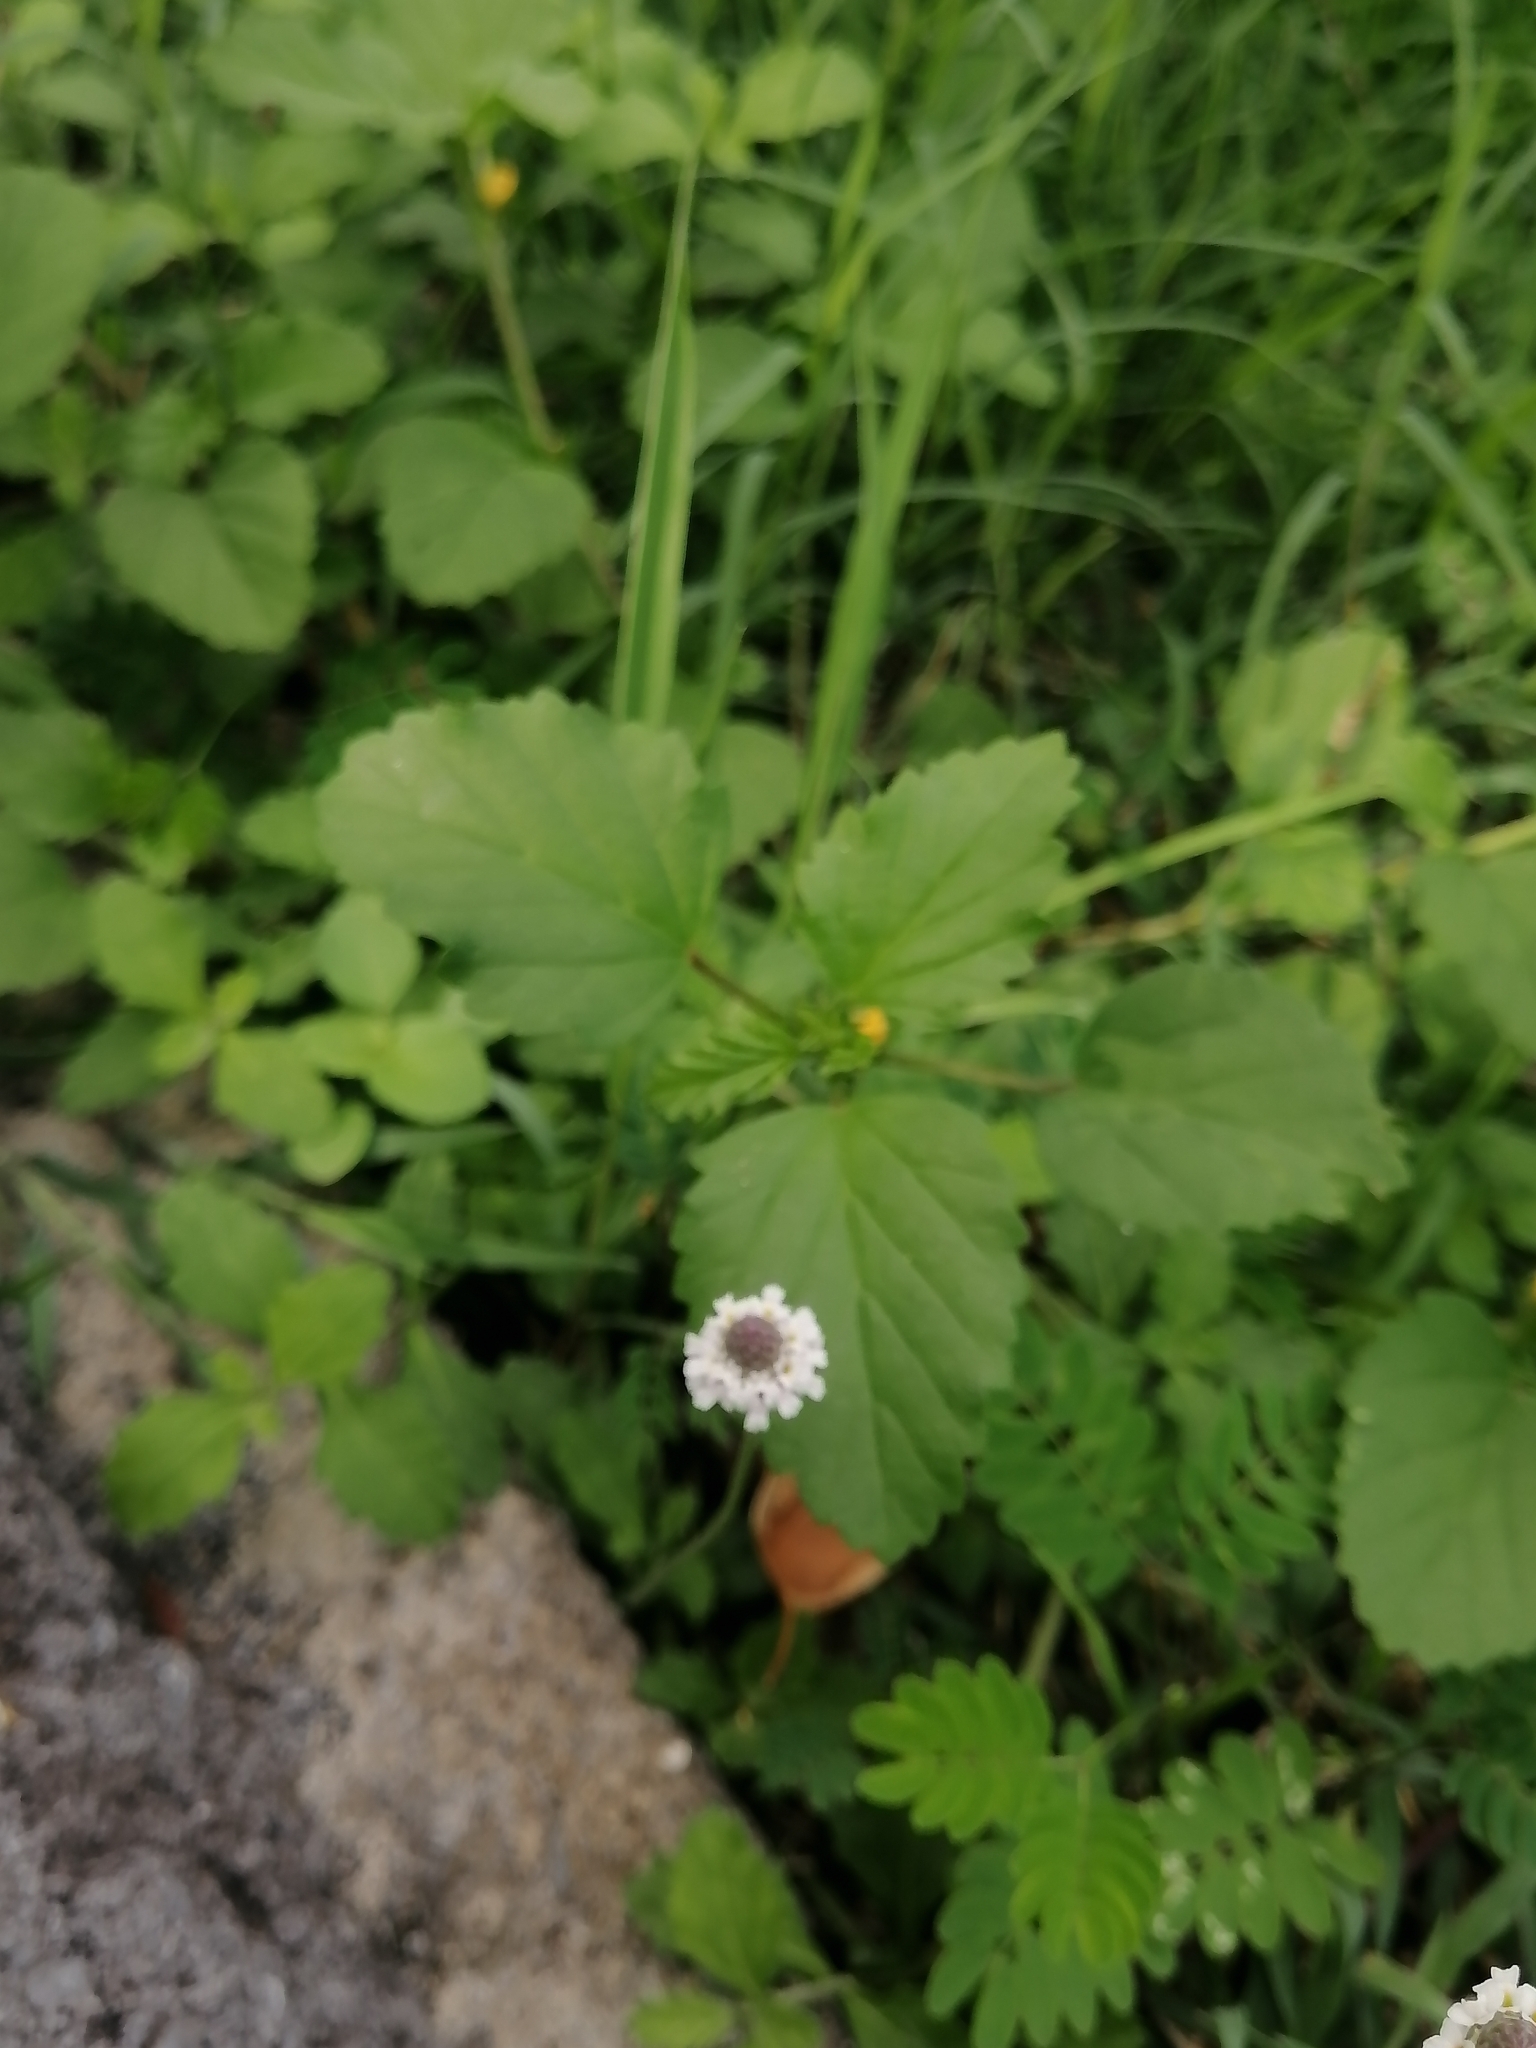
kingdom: Plantae
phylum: Tracheophyta
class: Magnoliopsida
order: Lamiales
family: Verbenaceae
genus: Phyla
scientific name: Phyla nodiflora
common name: Frogfruit
